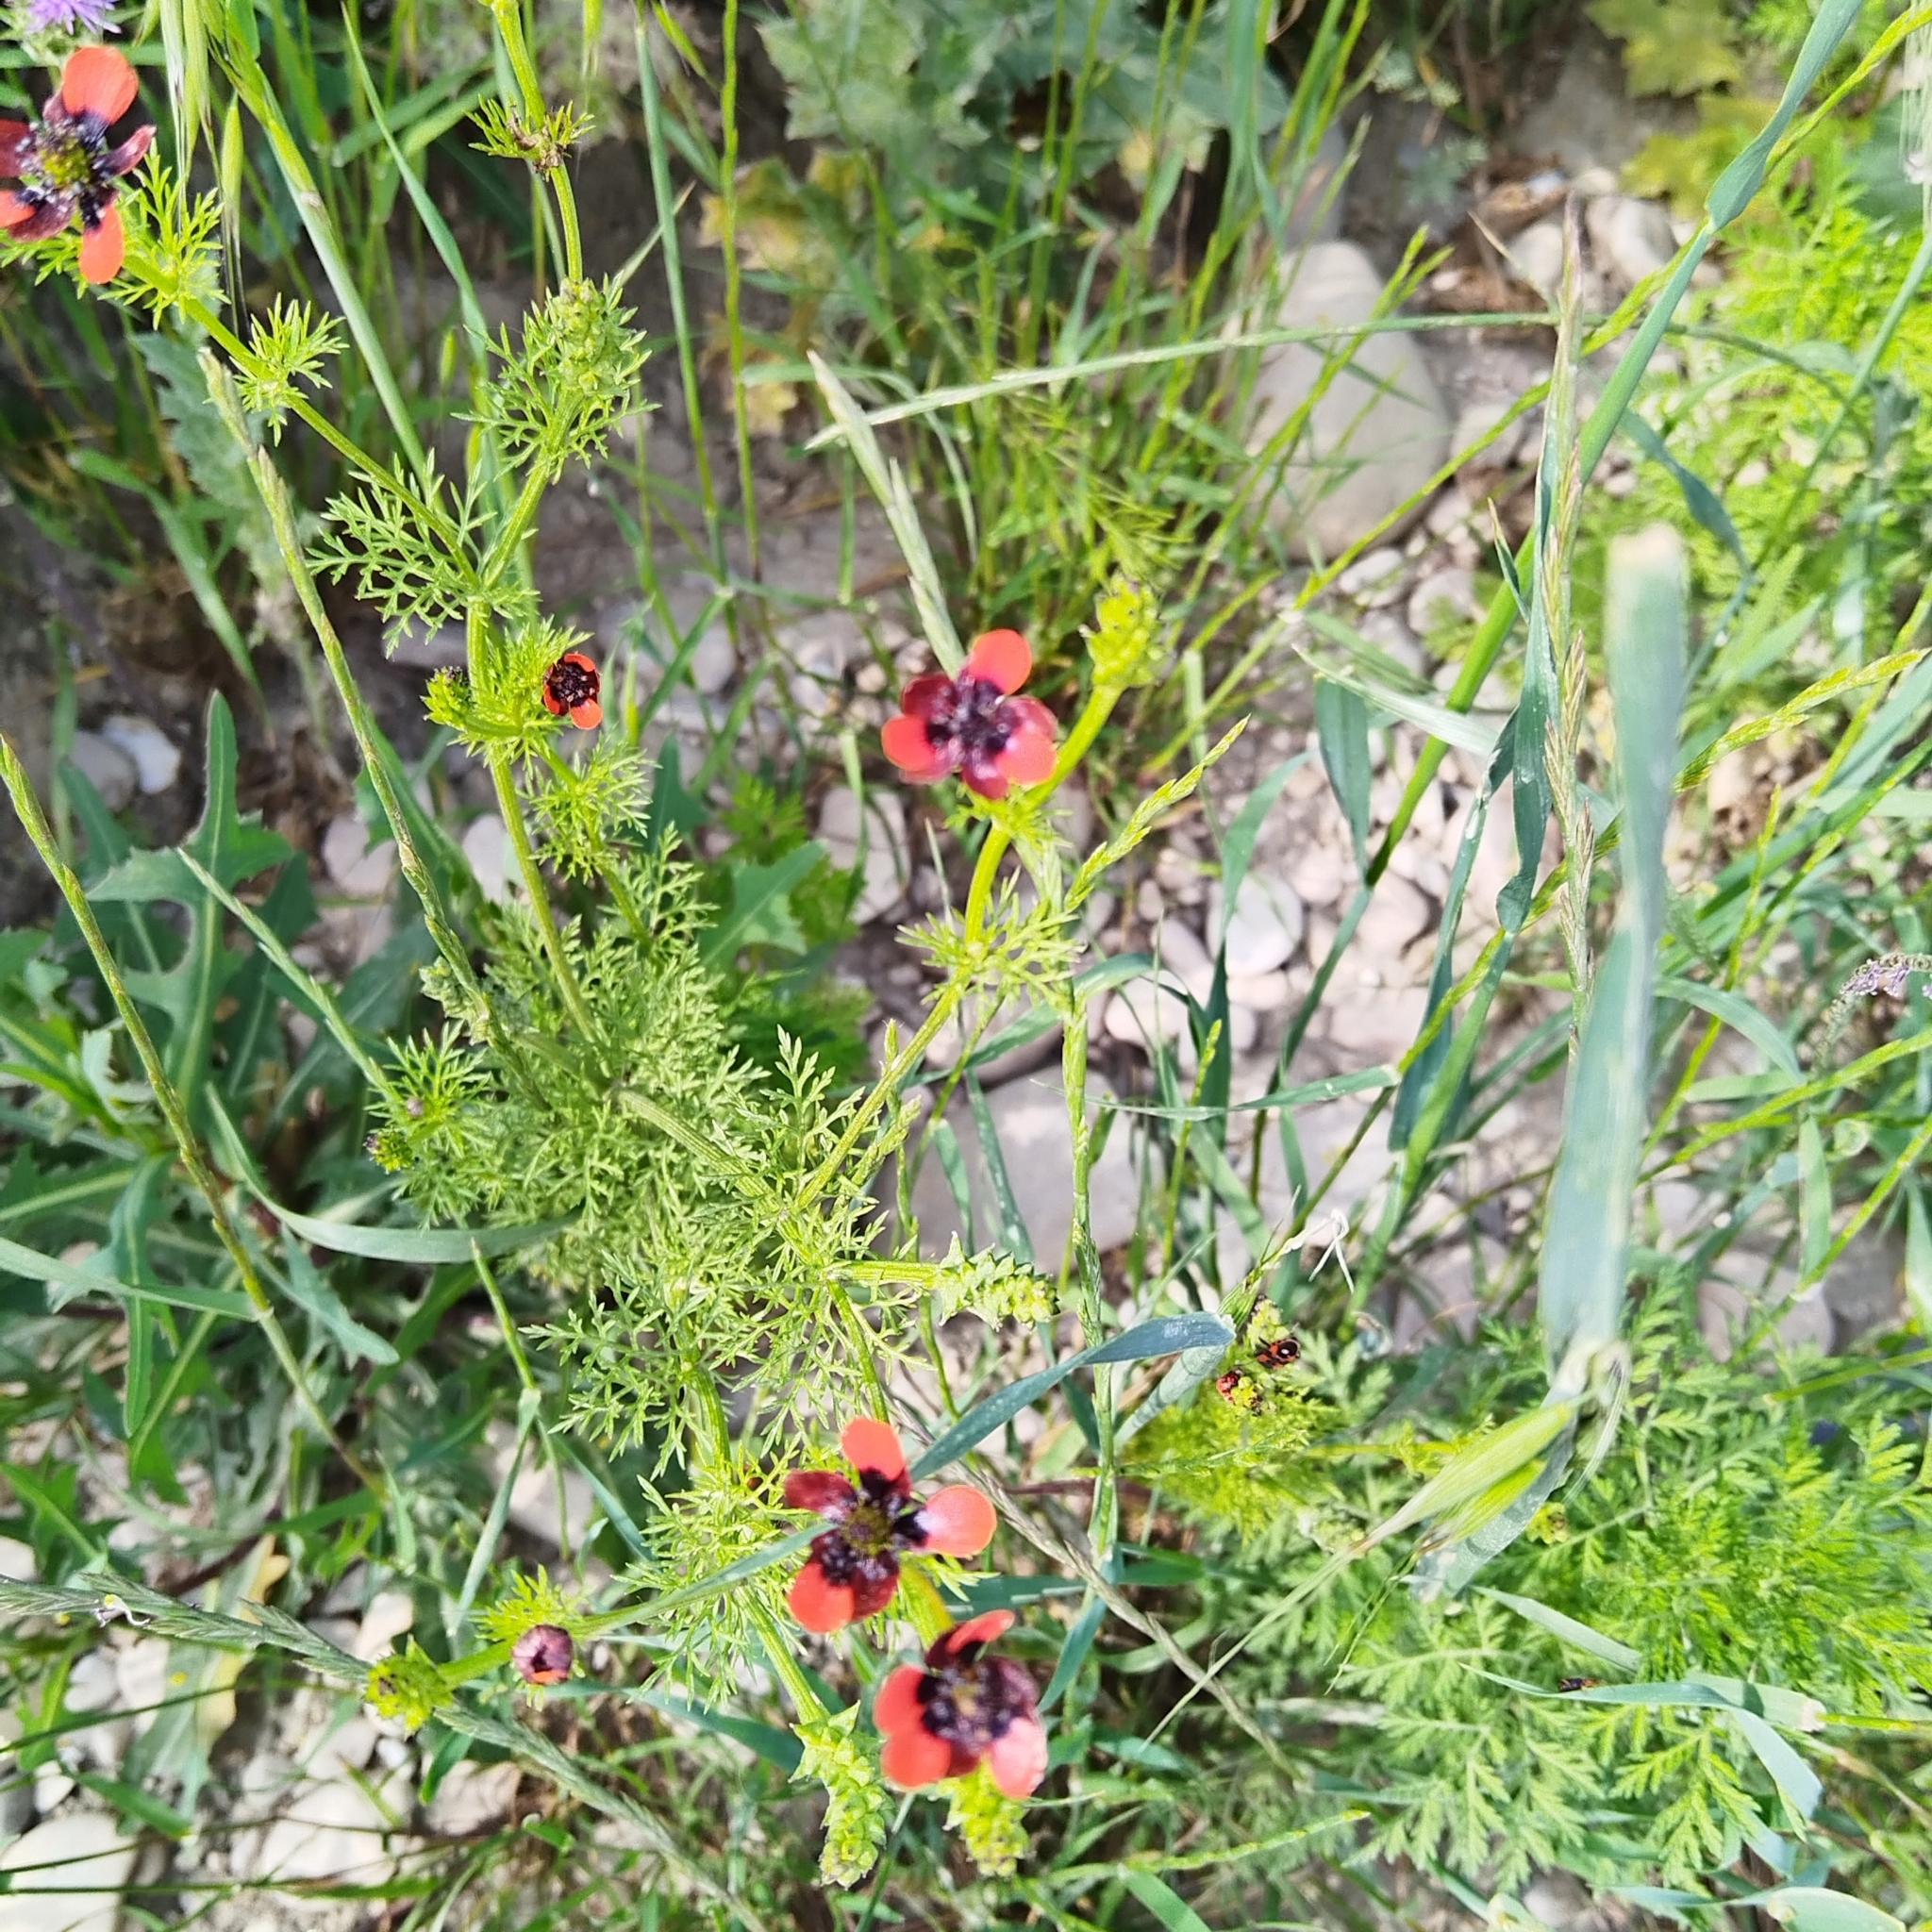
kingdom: Plantae
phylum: Tracheophyta
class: Magnoliopsida
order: Ranunculales
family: Ranunculaceae
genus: Adonis
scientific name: Adonis aestivalis
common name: Summer pheasant's-eye
